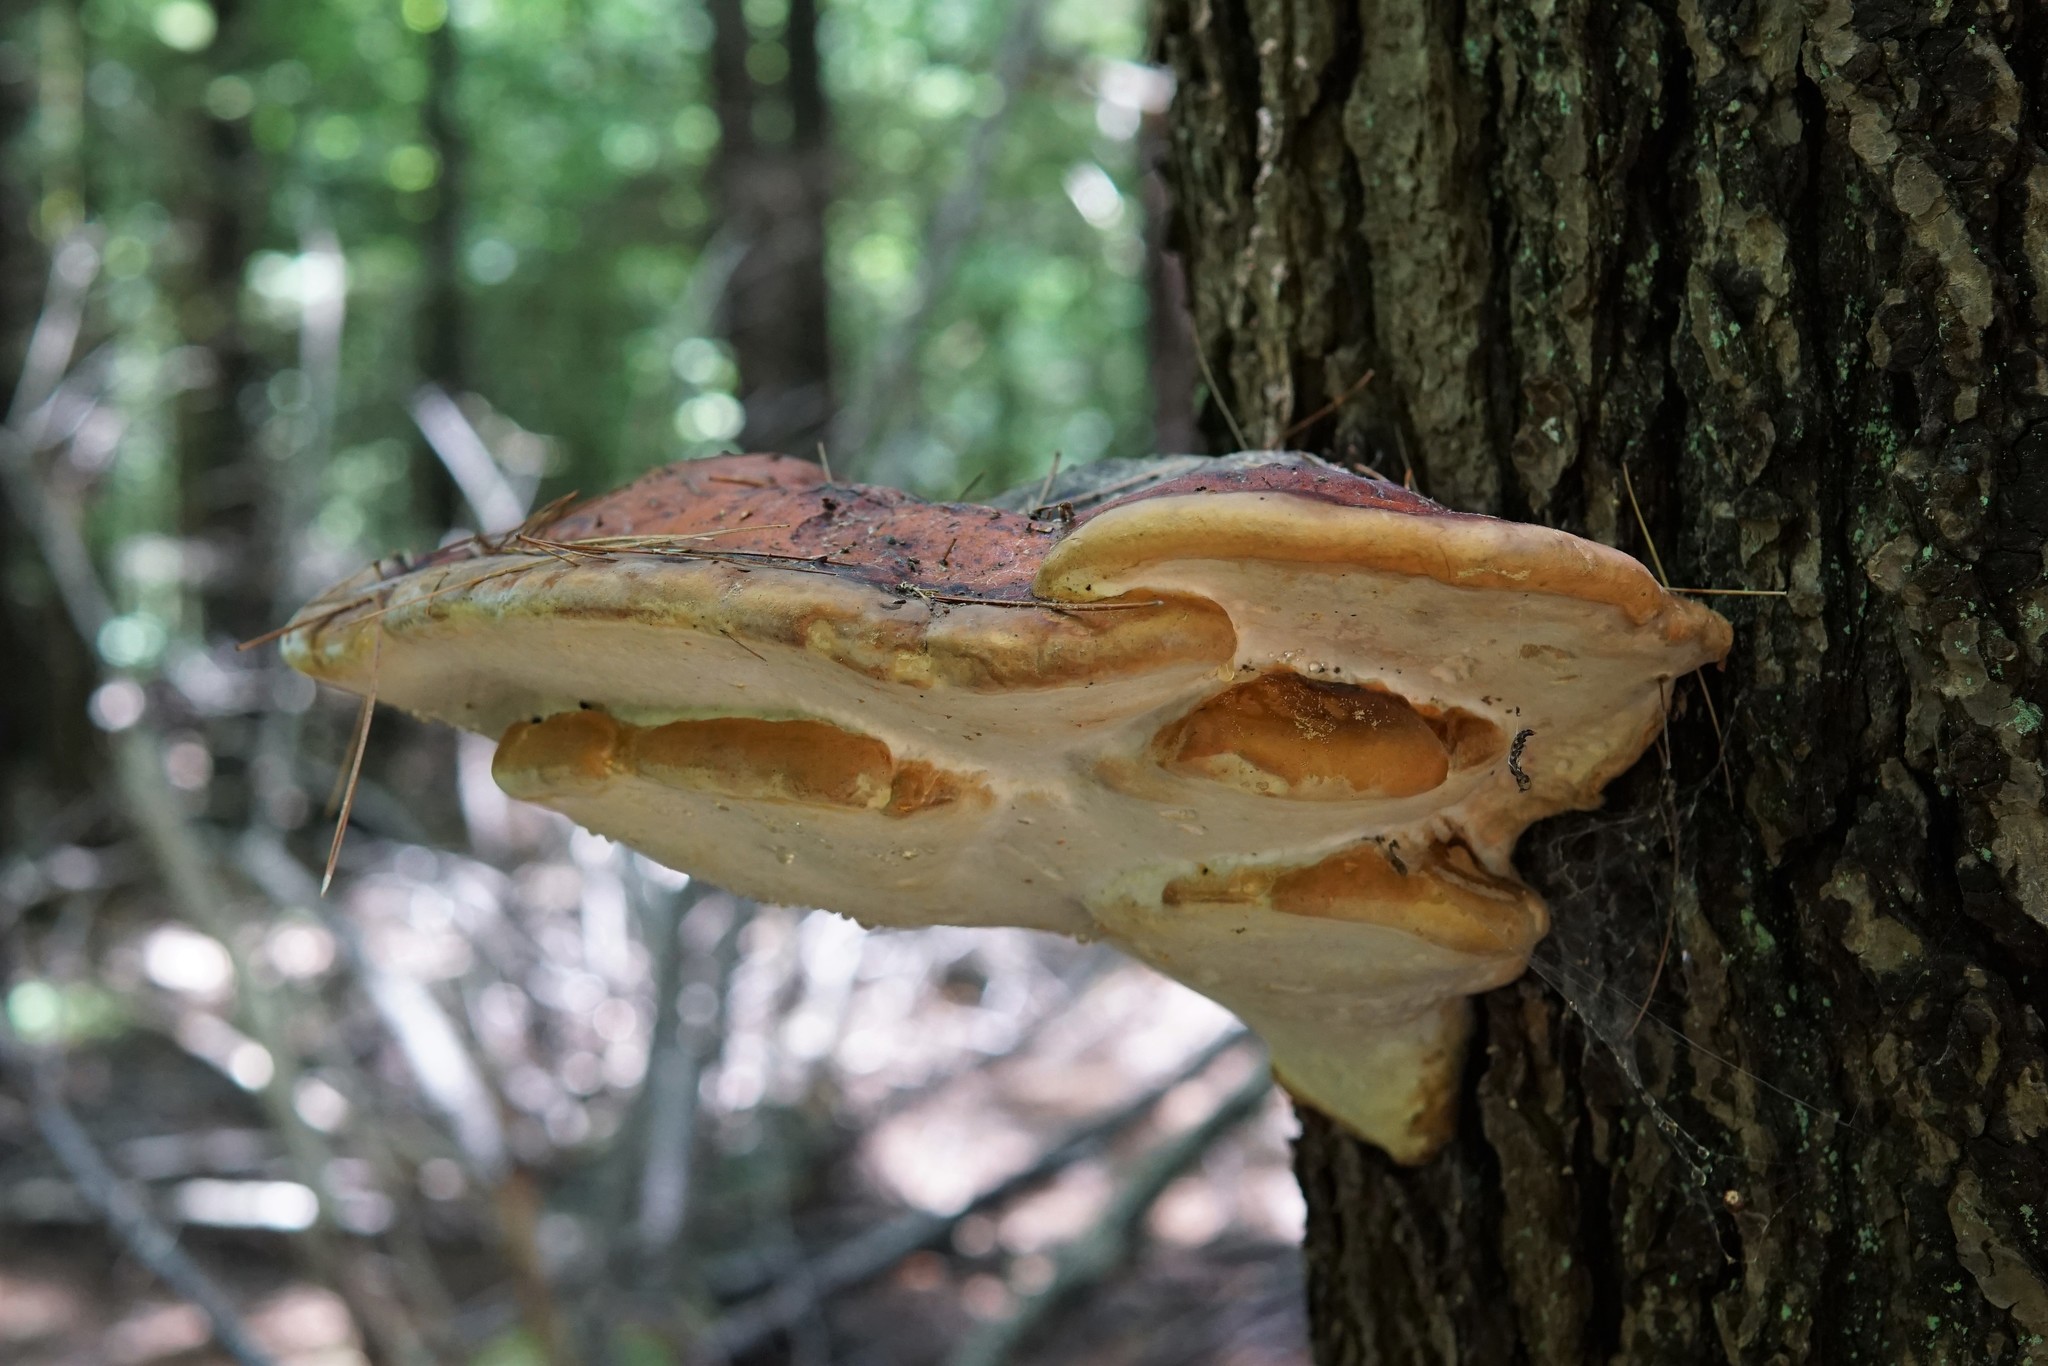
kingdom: Fungi
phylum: Basidiomycota
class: Agaricomycetes
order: Polyporales
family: Fomitopsidaceae
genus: Fomitopsis
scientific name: Fomitopsis mounceae
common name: Northern red belt
